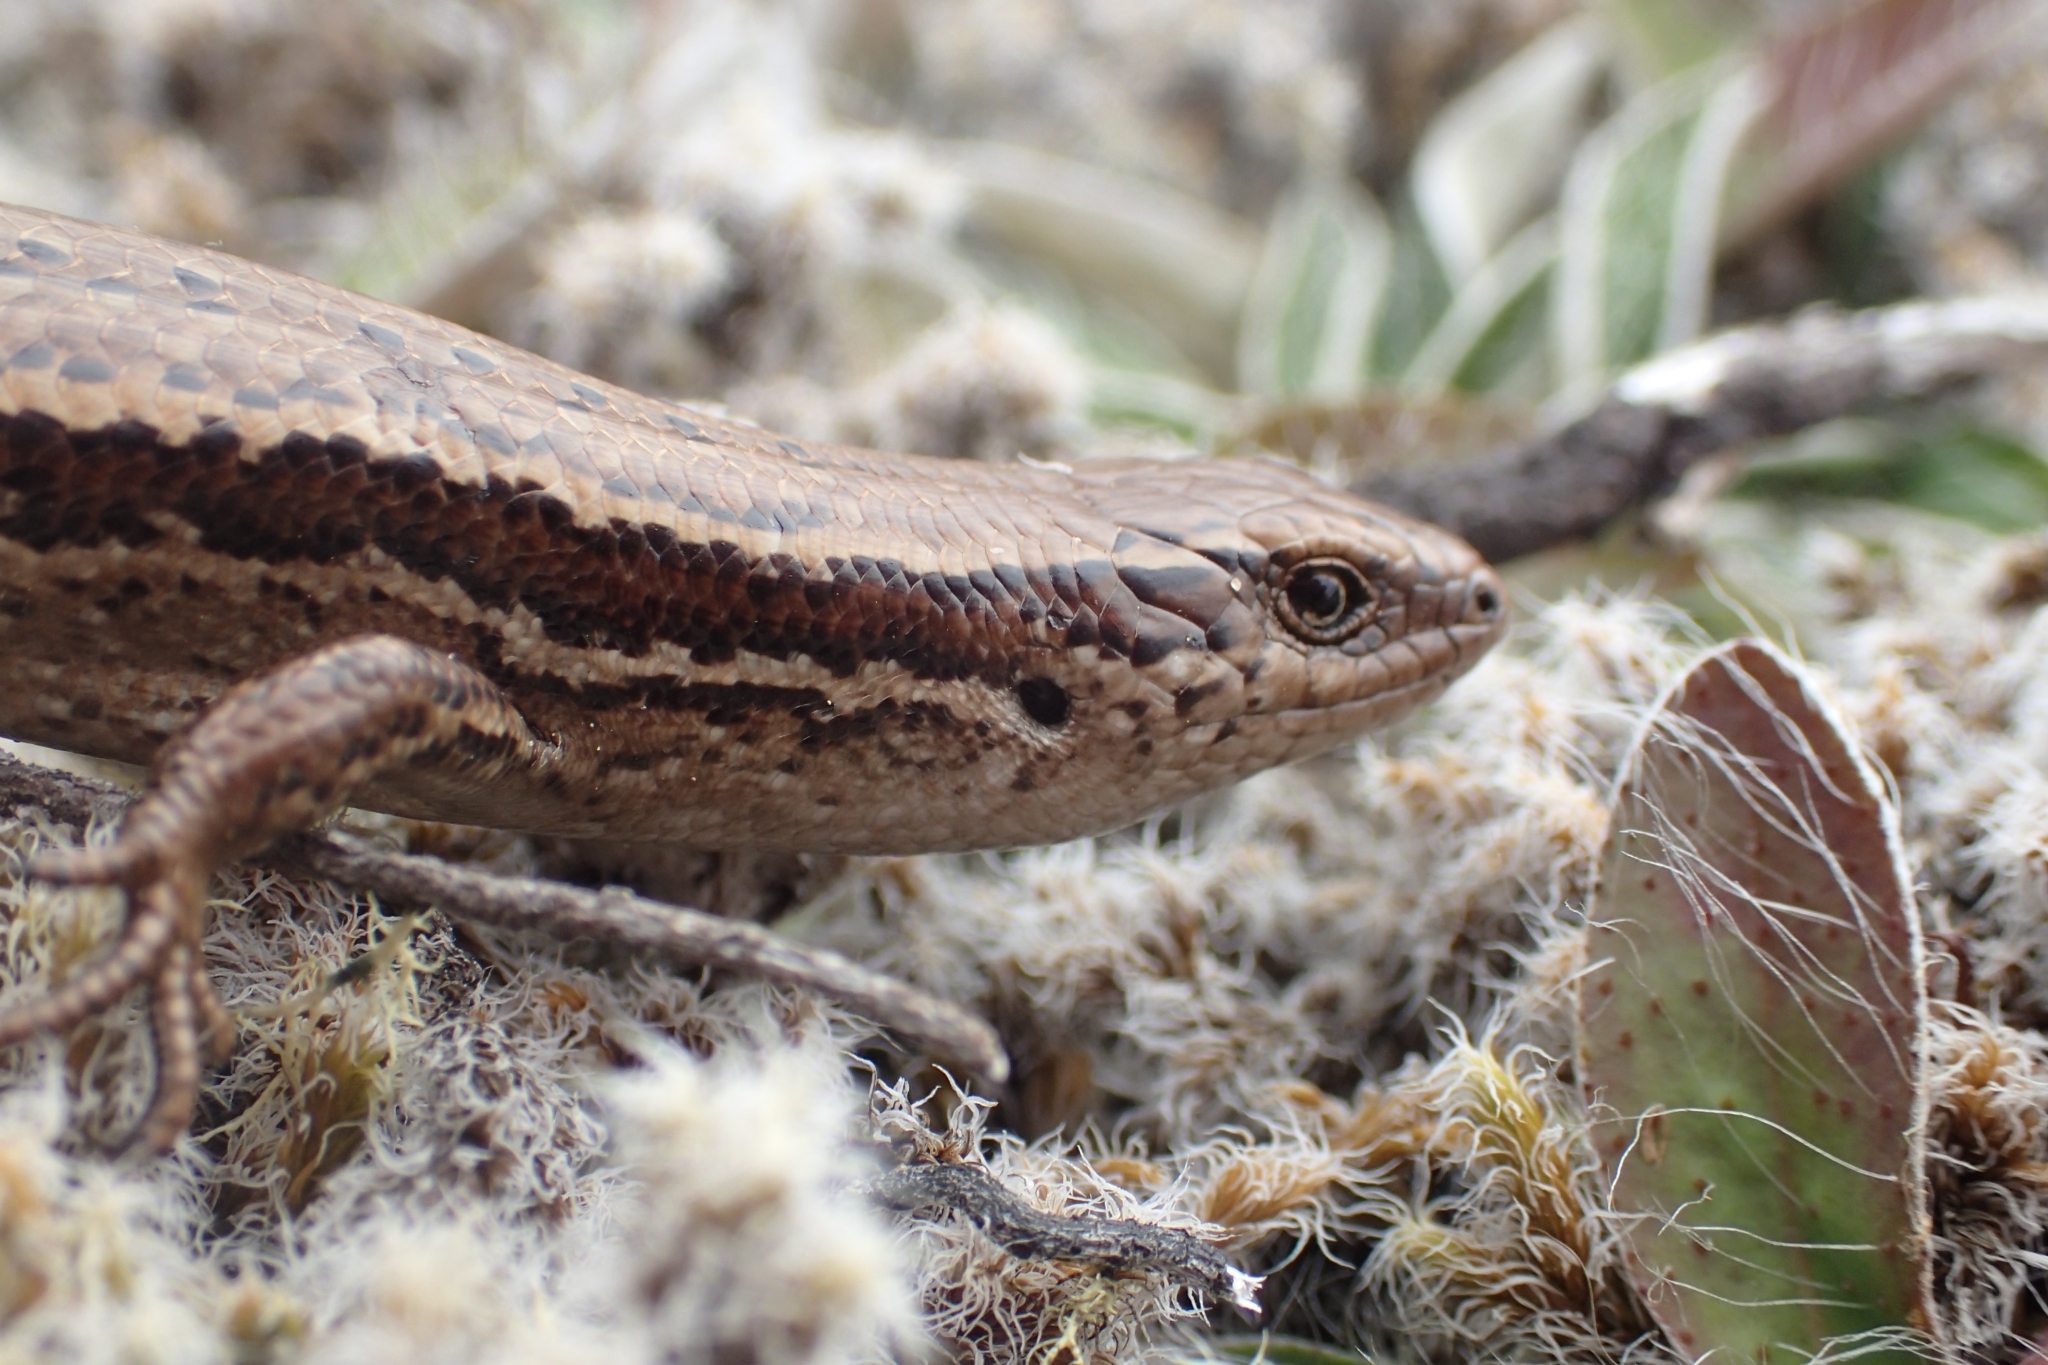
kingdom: Animalia
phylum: Chordata
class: Squamata
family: Scincidae
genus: Oligosoma
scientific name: Oligosoma polychroma
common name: Common new zealand skink
